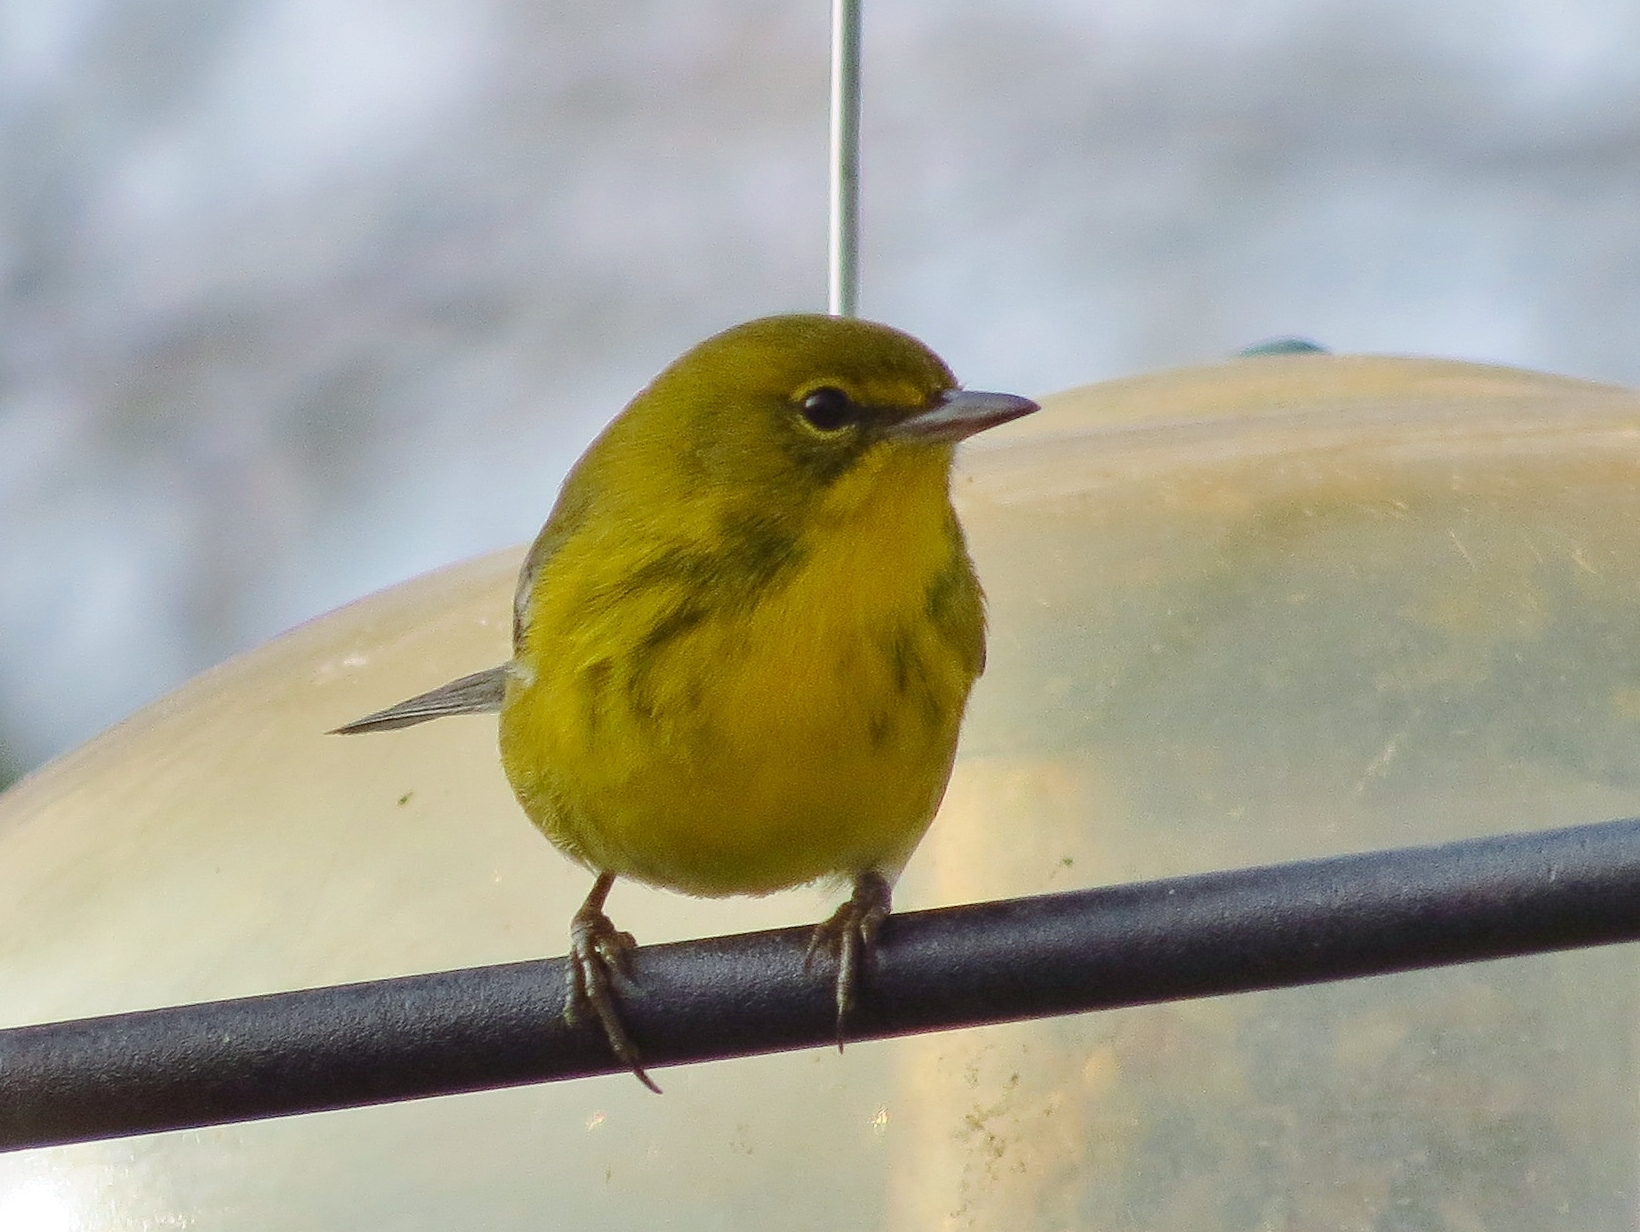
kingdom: Animalia
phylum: Chordata
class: Aves
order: Passeriformes
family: Parulidae
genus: Setophaga
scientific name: Setophaga pinus
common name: Pine warbler
